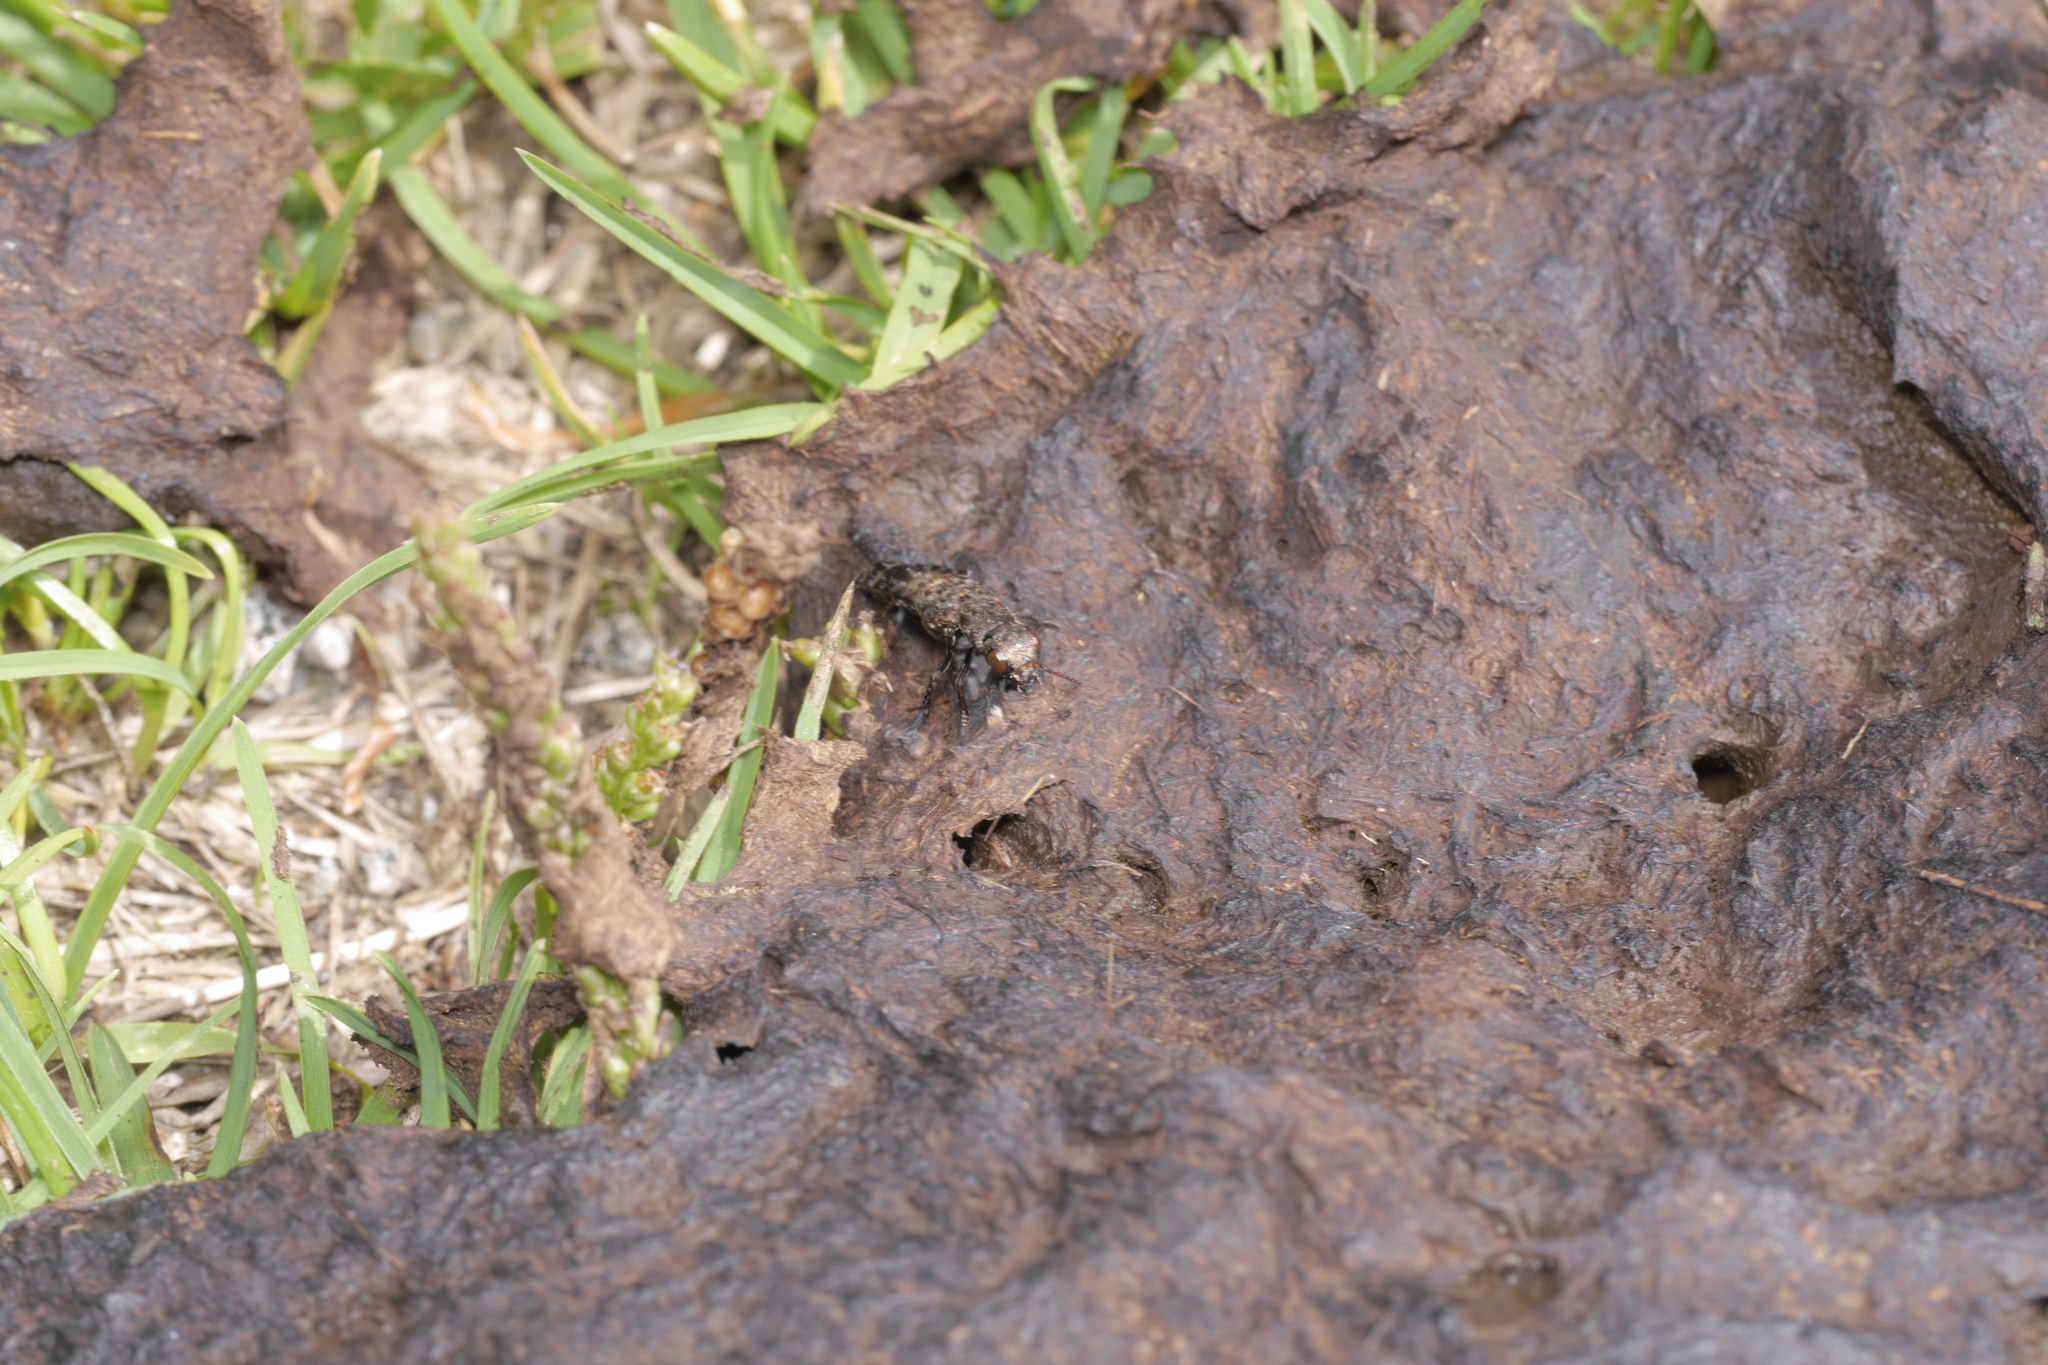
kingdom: Animalia
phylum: Arthropoda
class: Insecta
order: Coleoptera
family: Staphylinidae
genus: Ontholestes
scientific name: Ontholestes murinus
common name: Staph beetle
